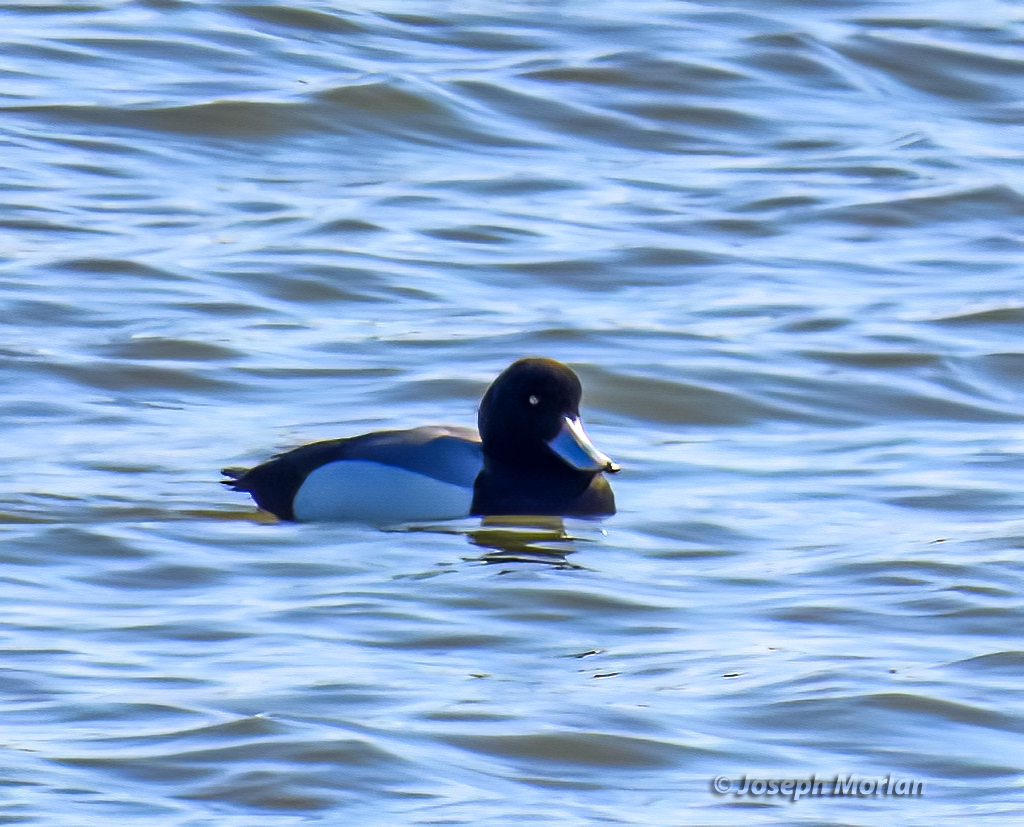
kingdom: Animalia
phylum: Chordata
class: Aves
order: Anseriformes
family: Anatidae
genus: Aythya
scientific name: Aythya marila
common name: Greater scaup
